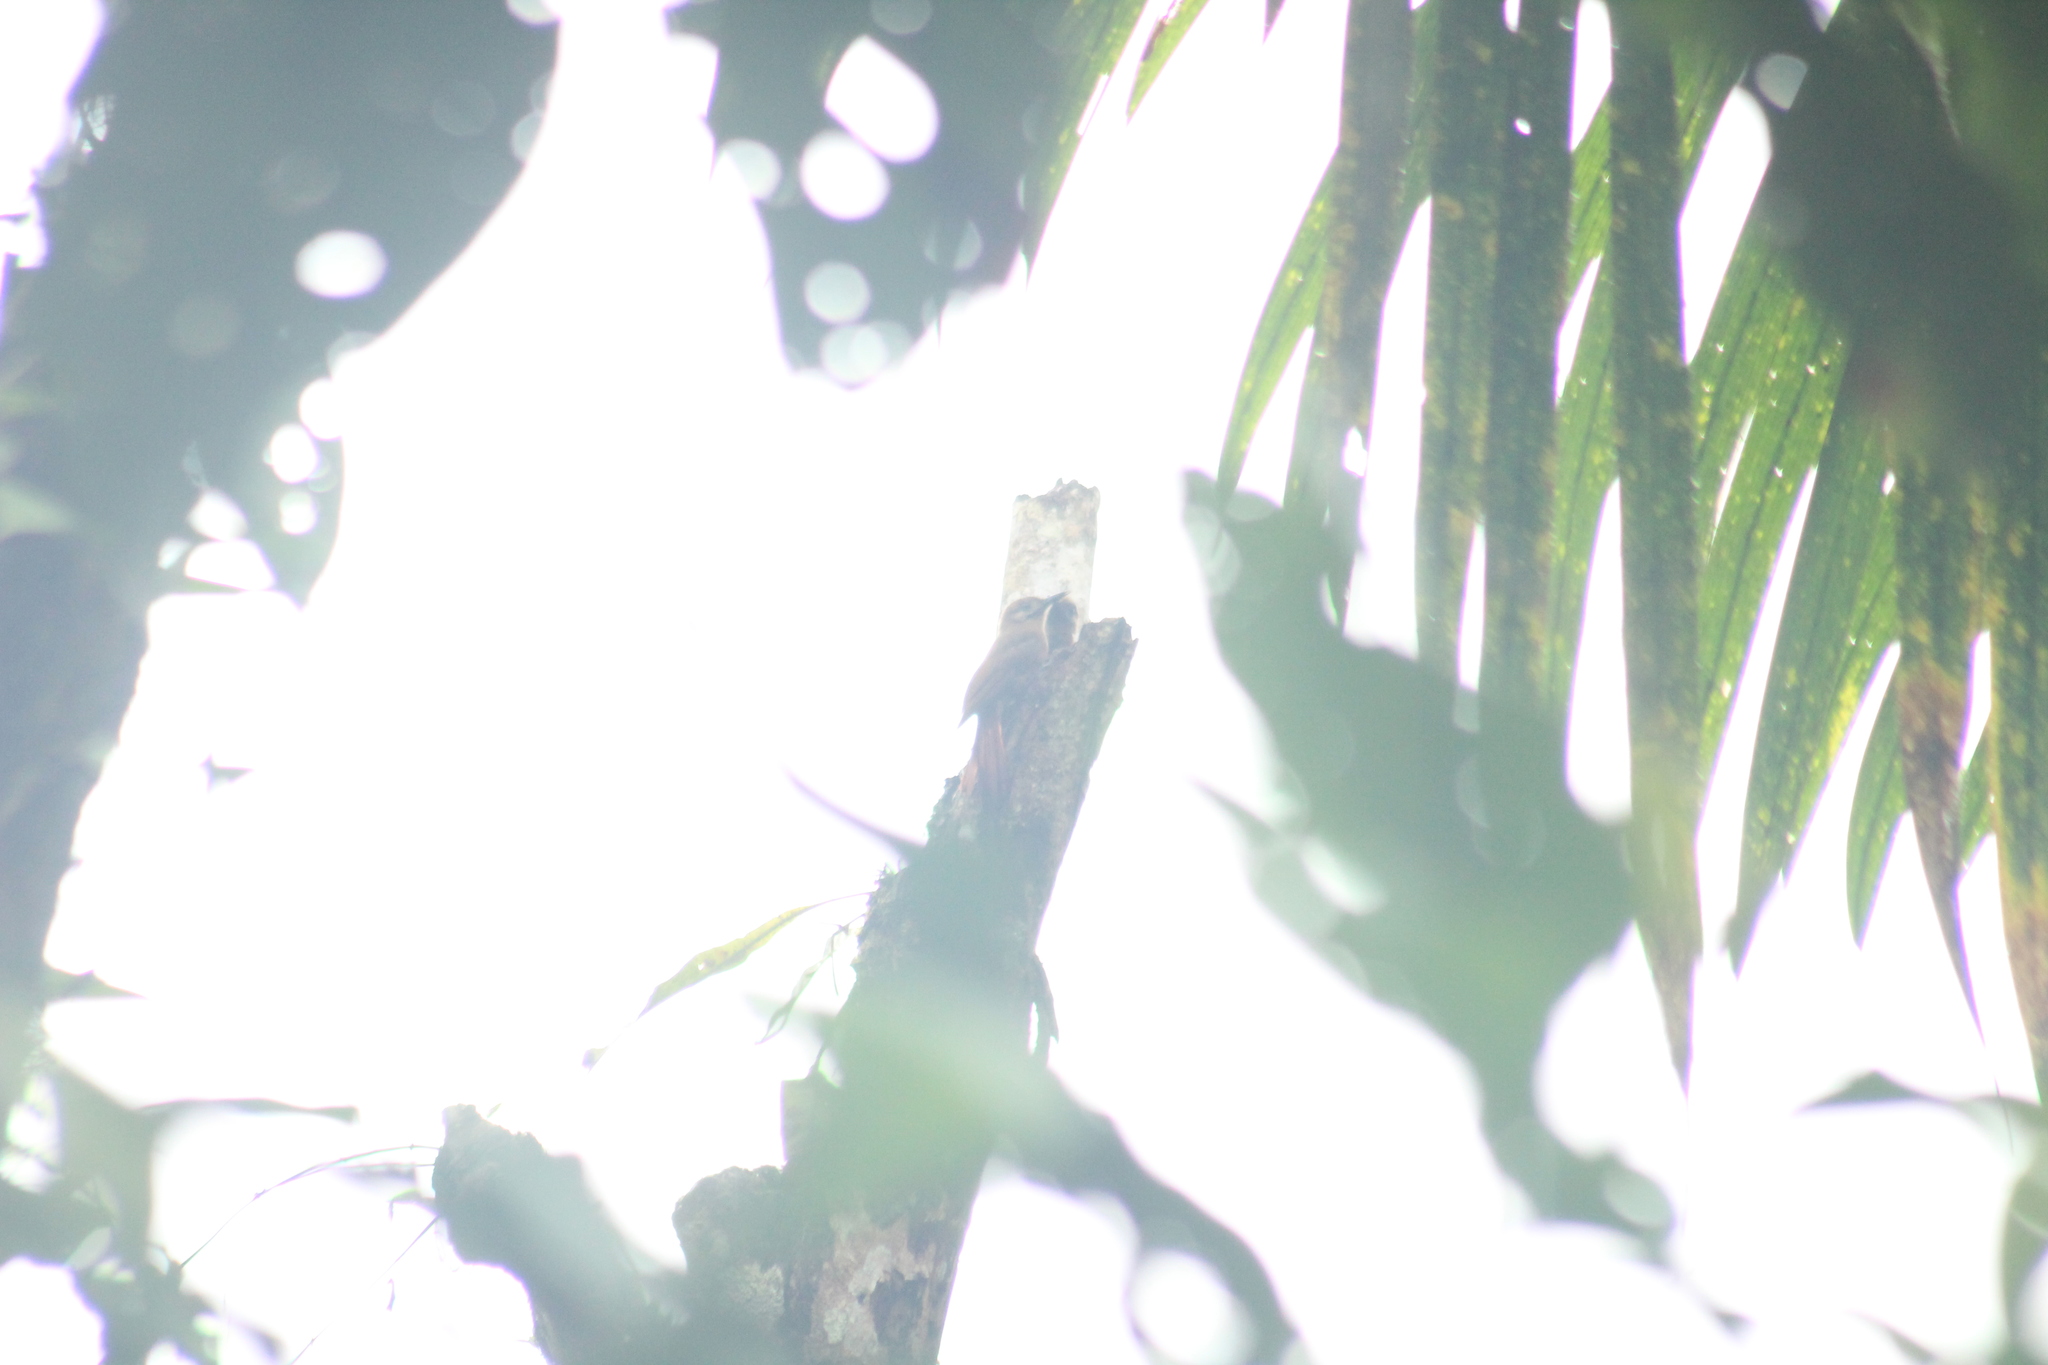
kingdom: Animalia
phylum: Chordata
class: Aves
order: Passeriformes
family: Furnariidae
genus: Dendrocincla
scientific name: Dendrocincla fuliginosa
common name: Plain-brown woodcreeper
